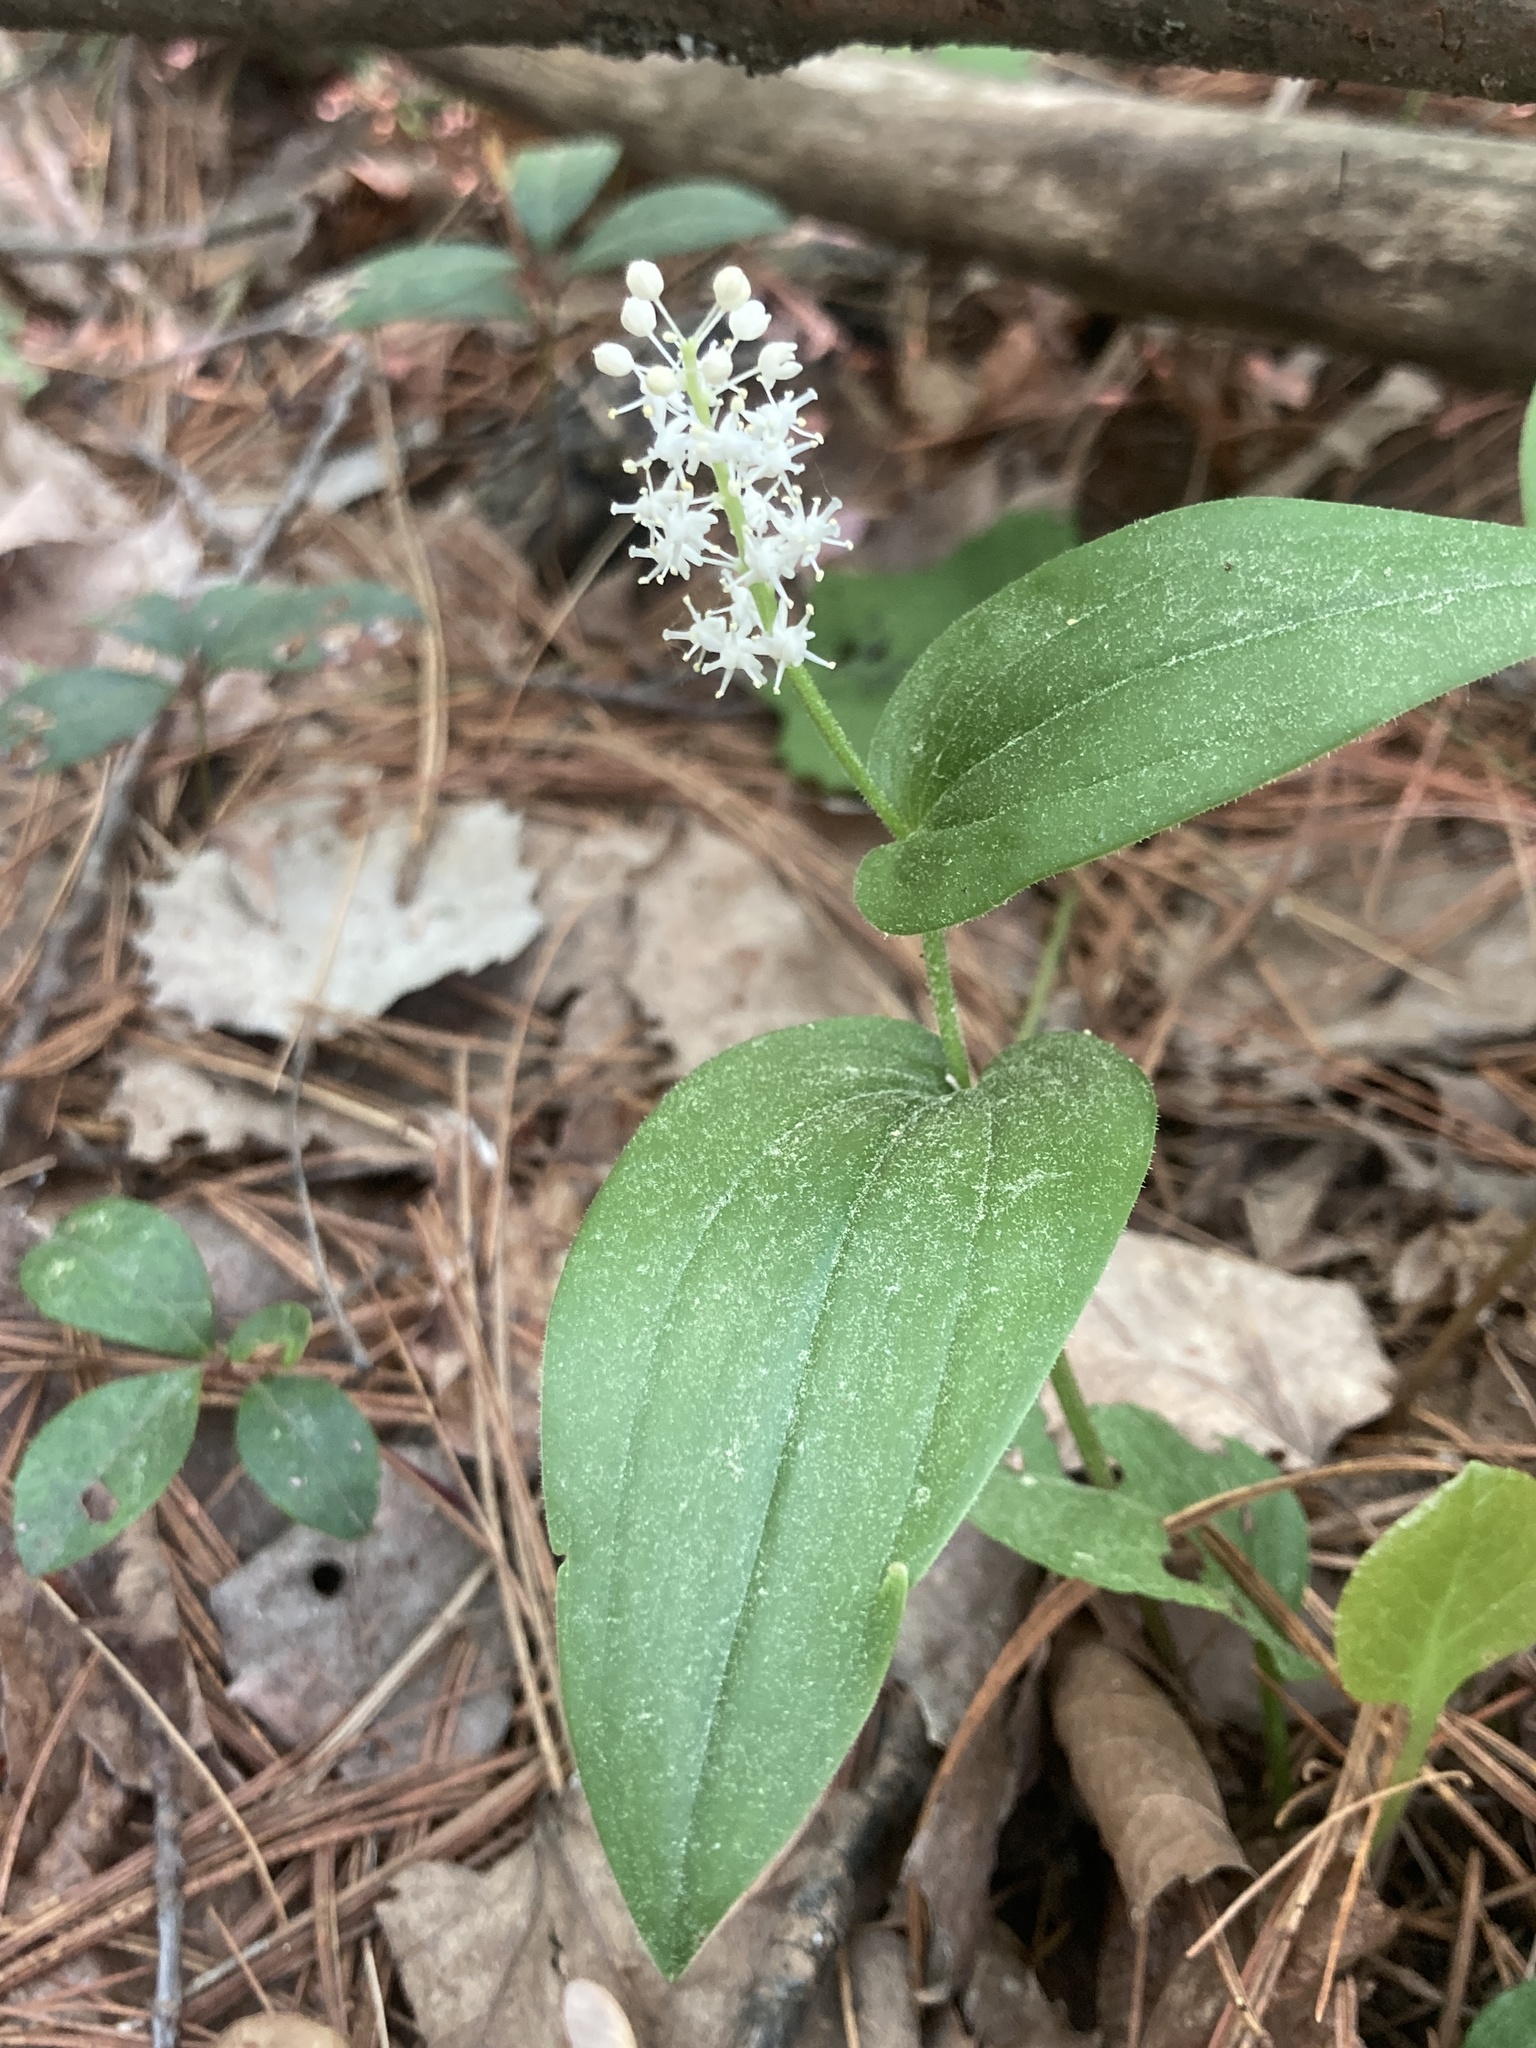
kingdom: Plantae
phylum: Tracheophyta
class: Liliopsida
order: Asparagales
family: Asparagaceae
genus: Maianthemum
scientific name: Maianthemum canadense
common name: False lily-of-the-valley
